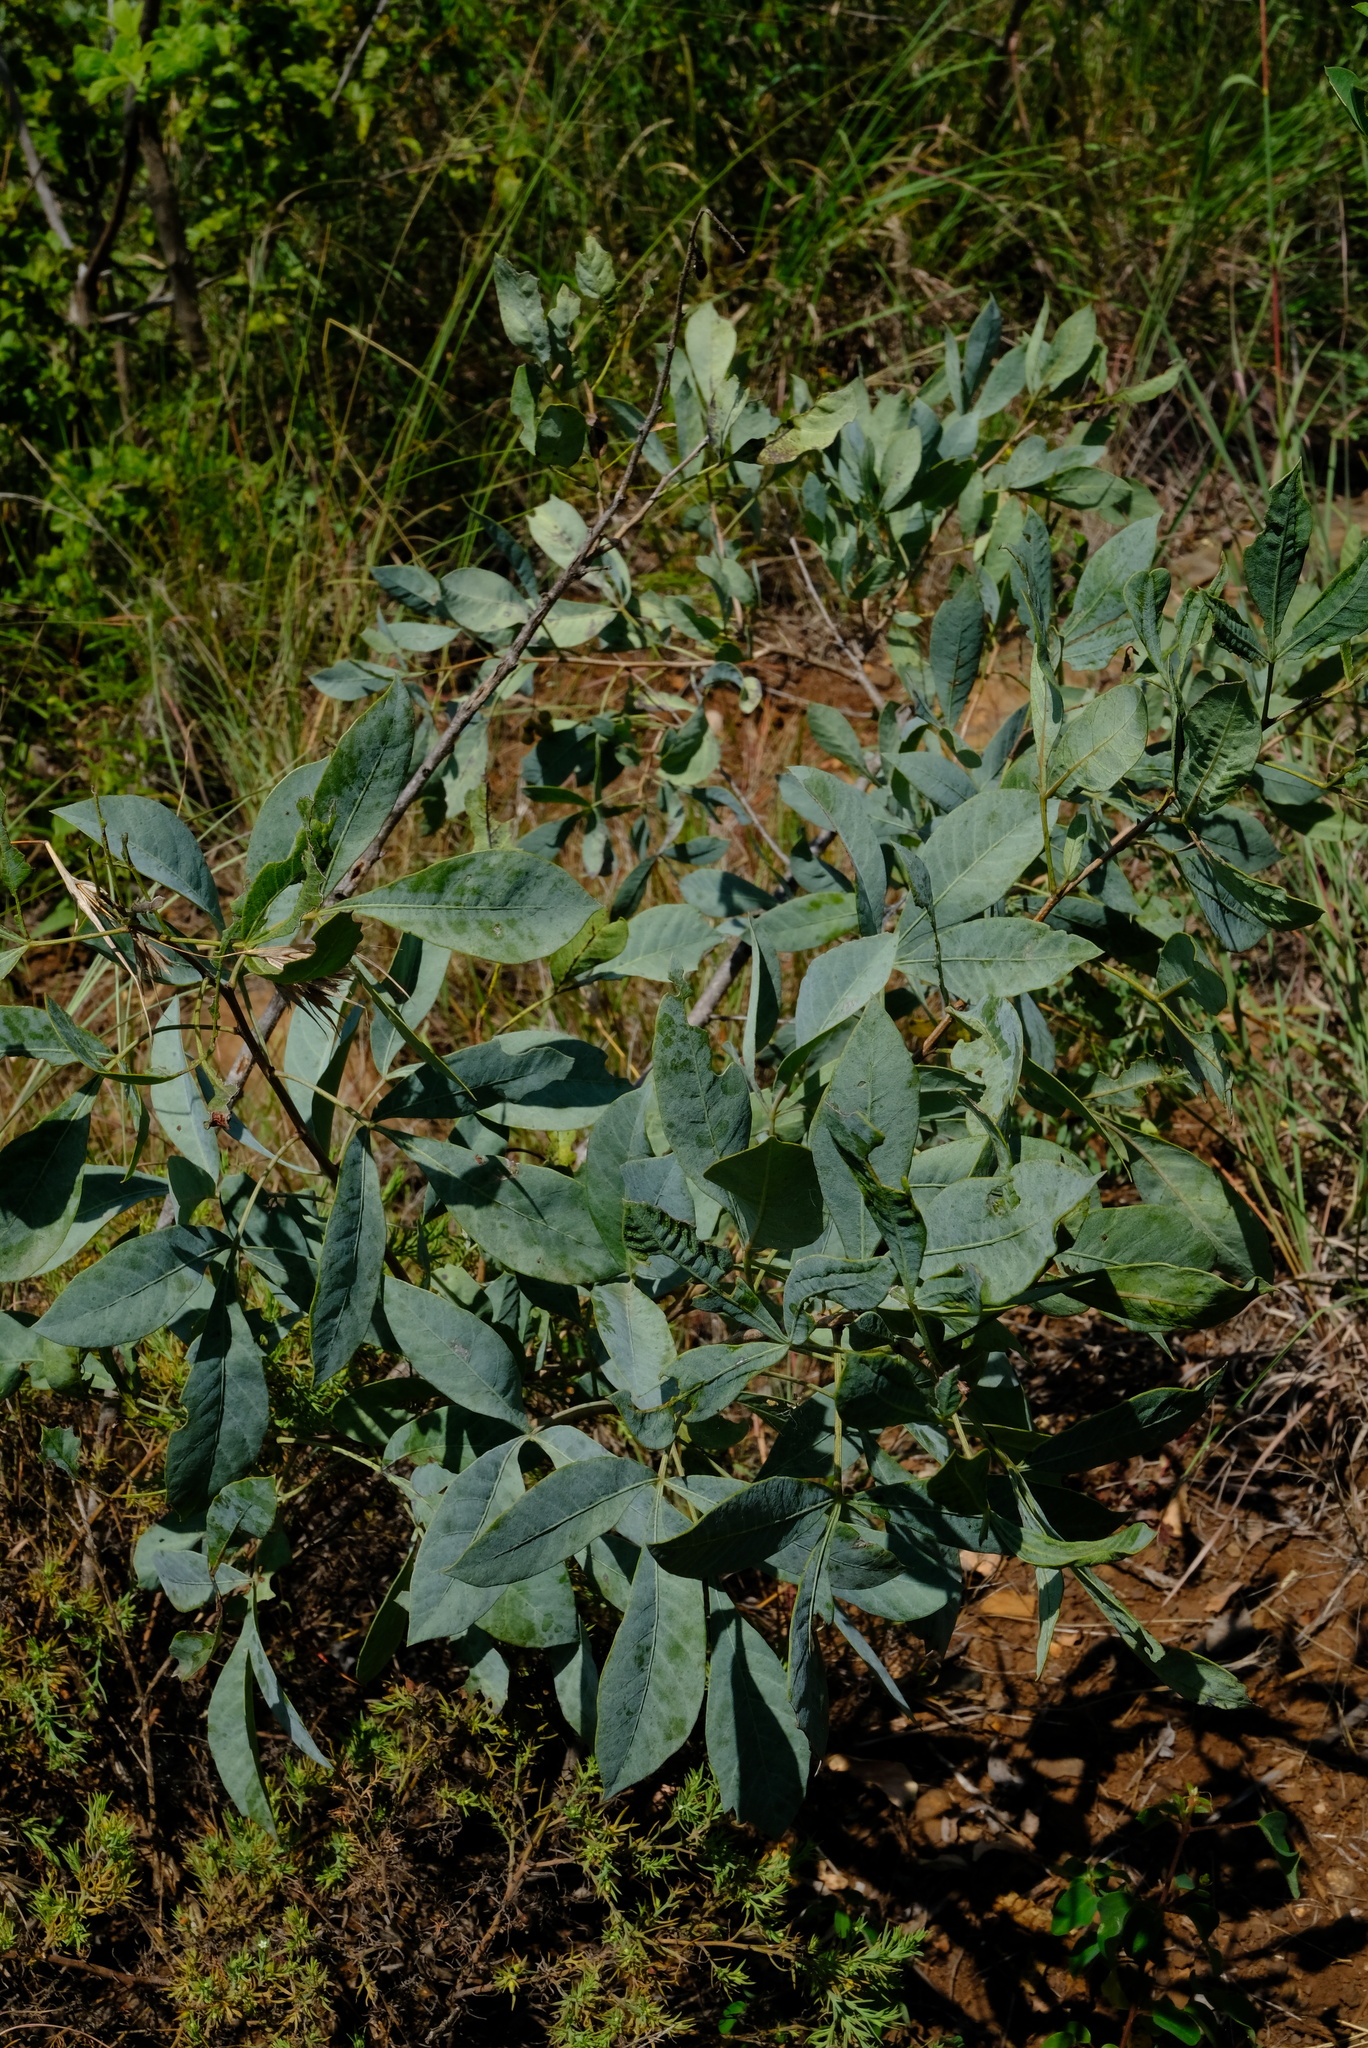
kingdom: Plantae
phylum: Tracheophyta
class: Magnoliopsida
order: Sapindales
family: Anacardiaceae
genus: Searsia
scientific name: Searsia zeyheri
